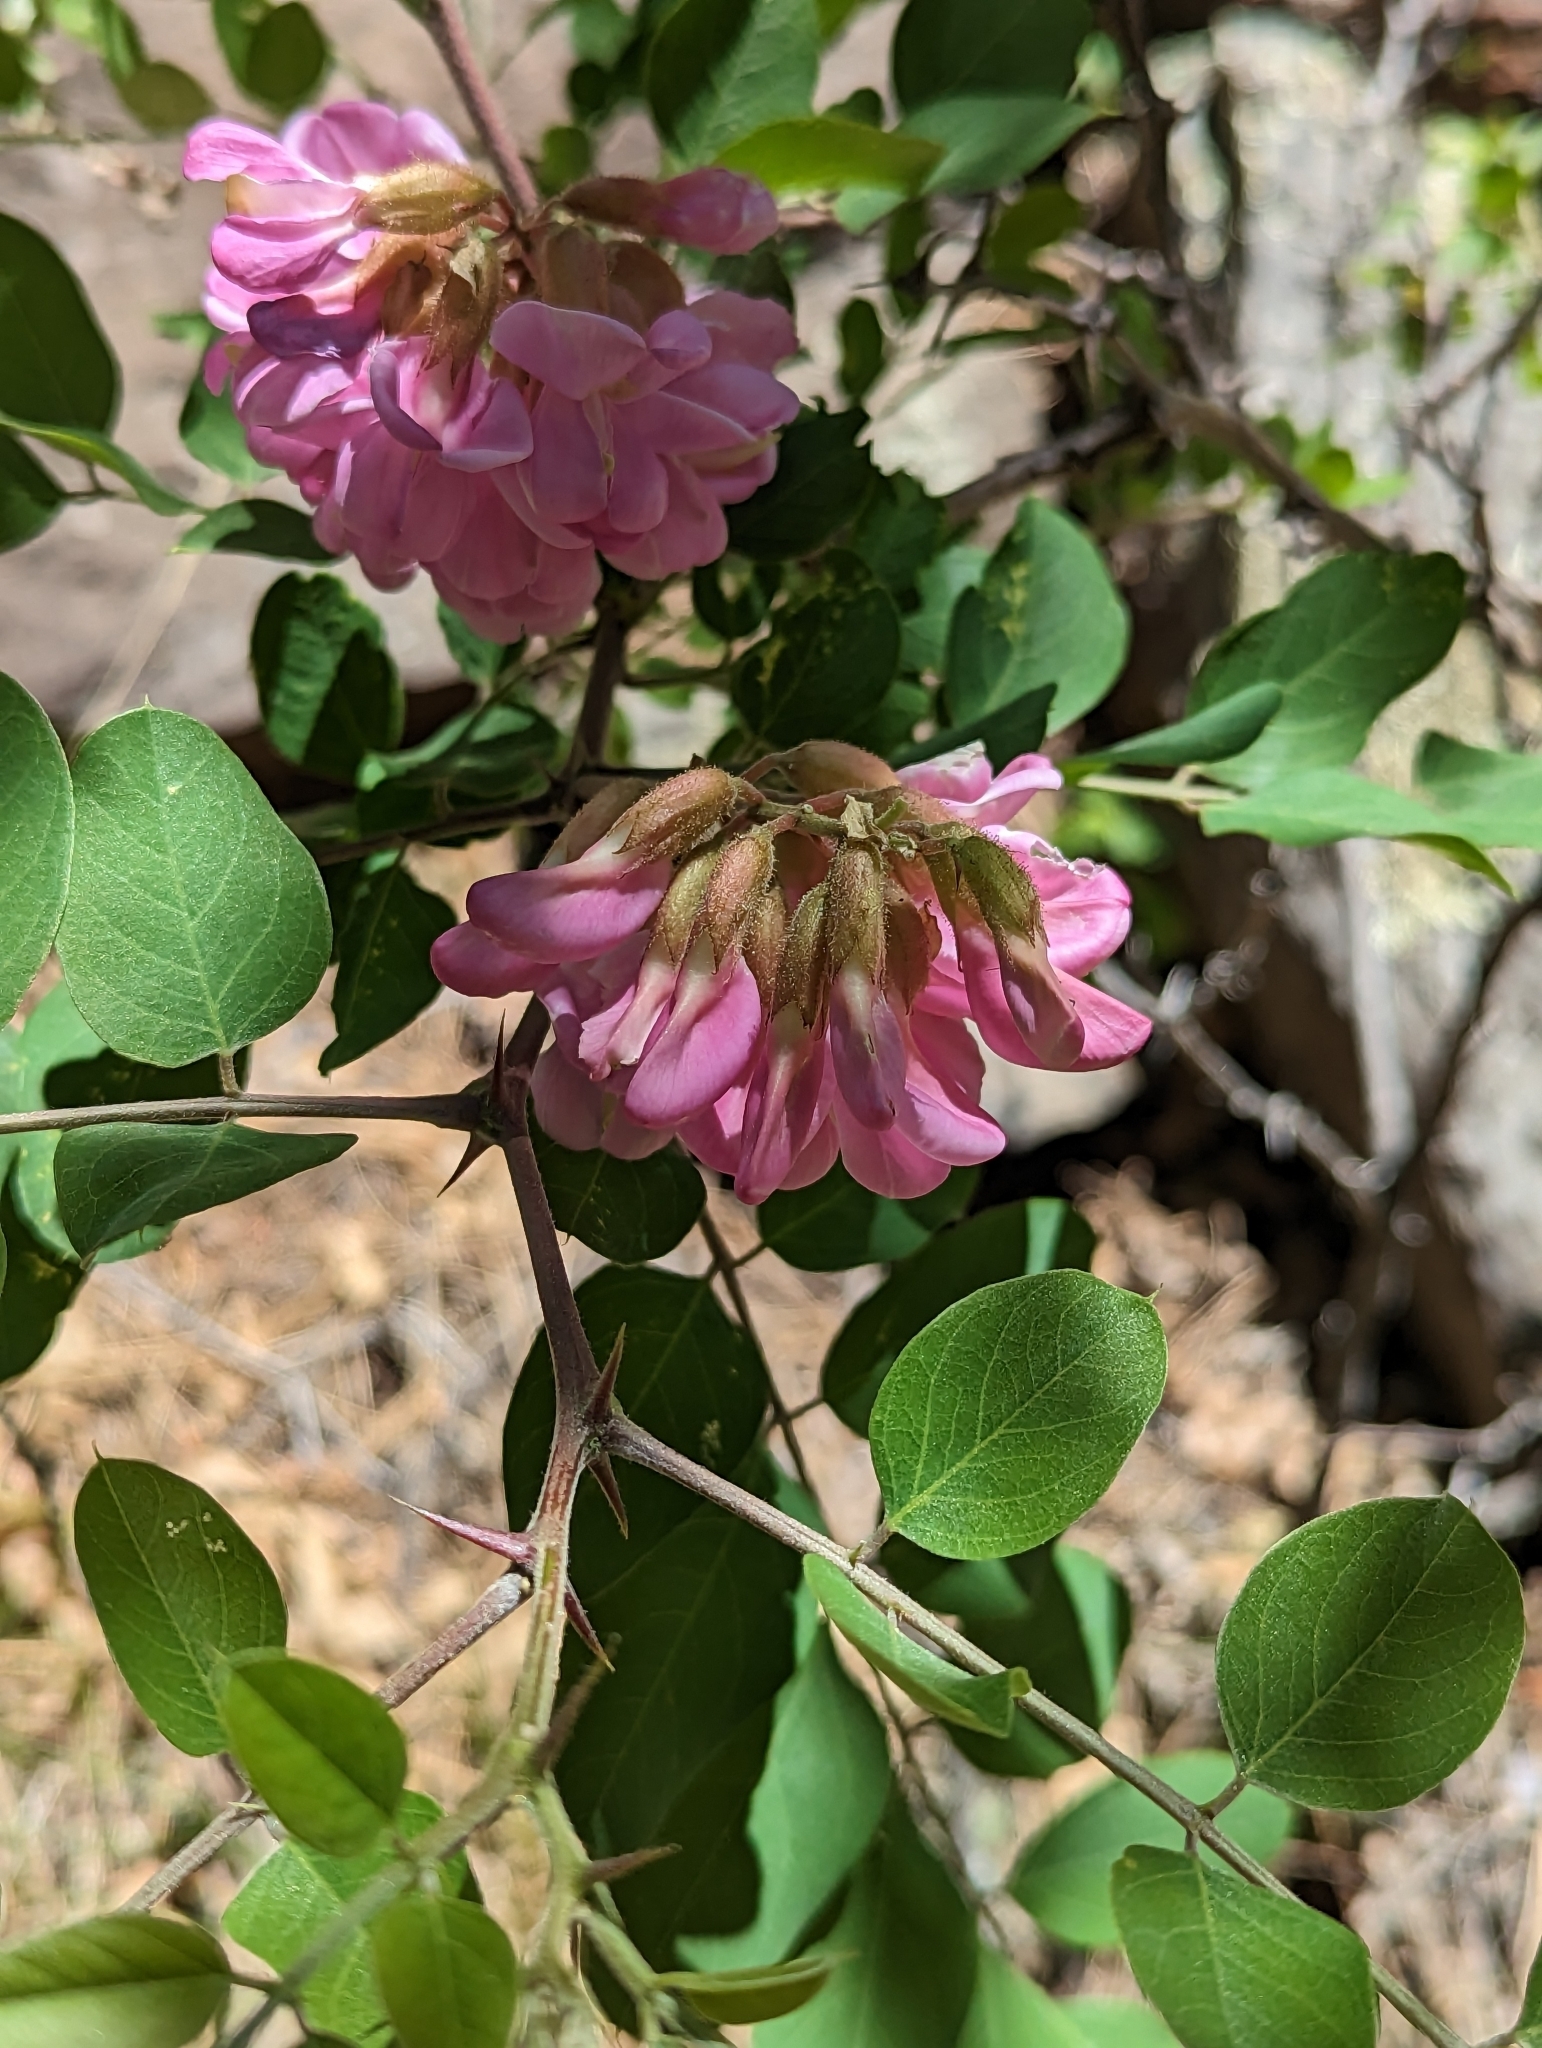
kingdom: Plantae
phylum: Tracheophyta
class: Magnoliopsida
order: Fabales
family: Fabaceae
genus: Robinia
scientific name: Robinia neomexicana
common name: New mexico locust
